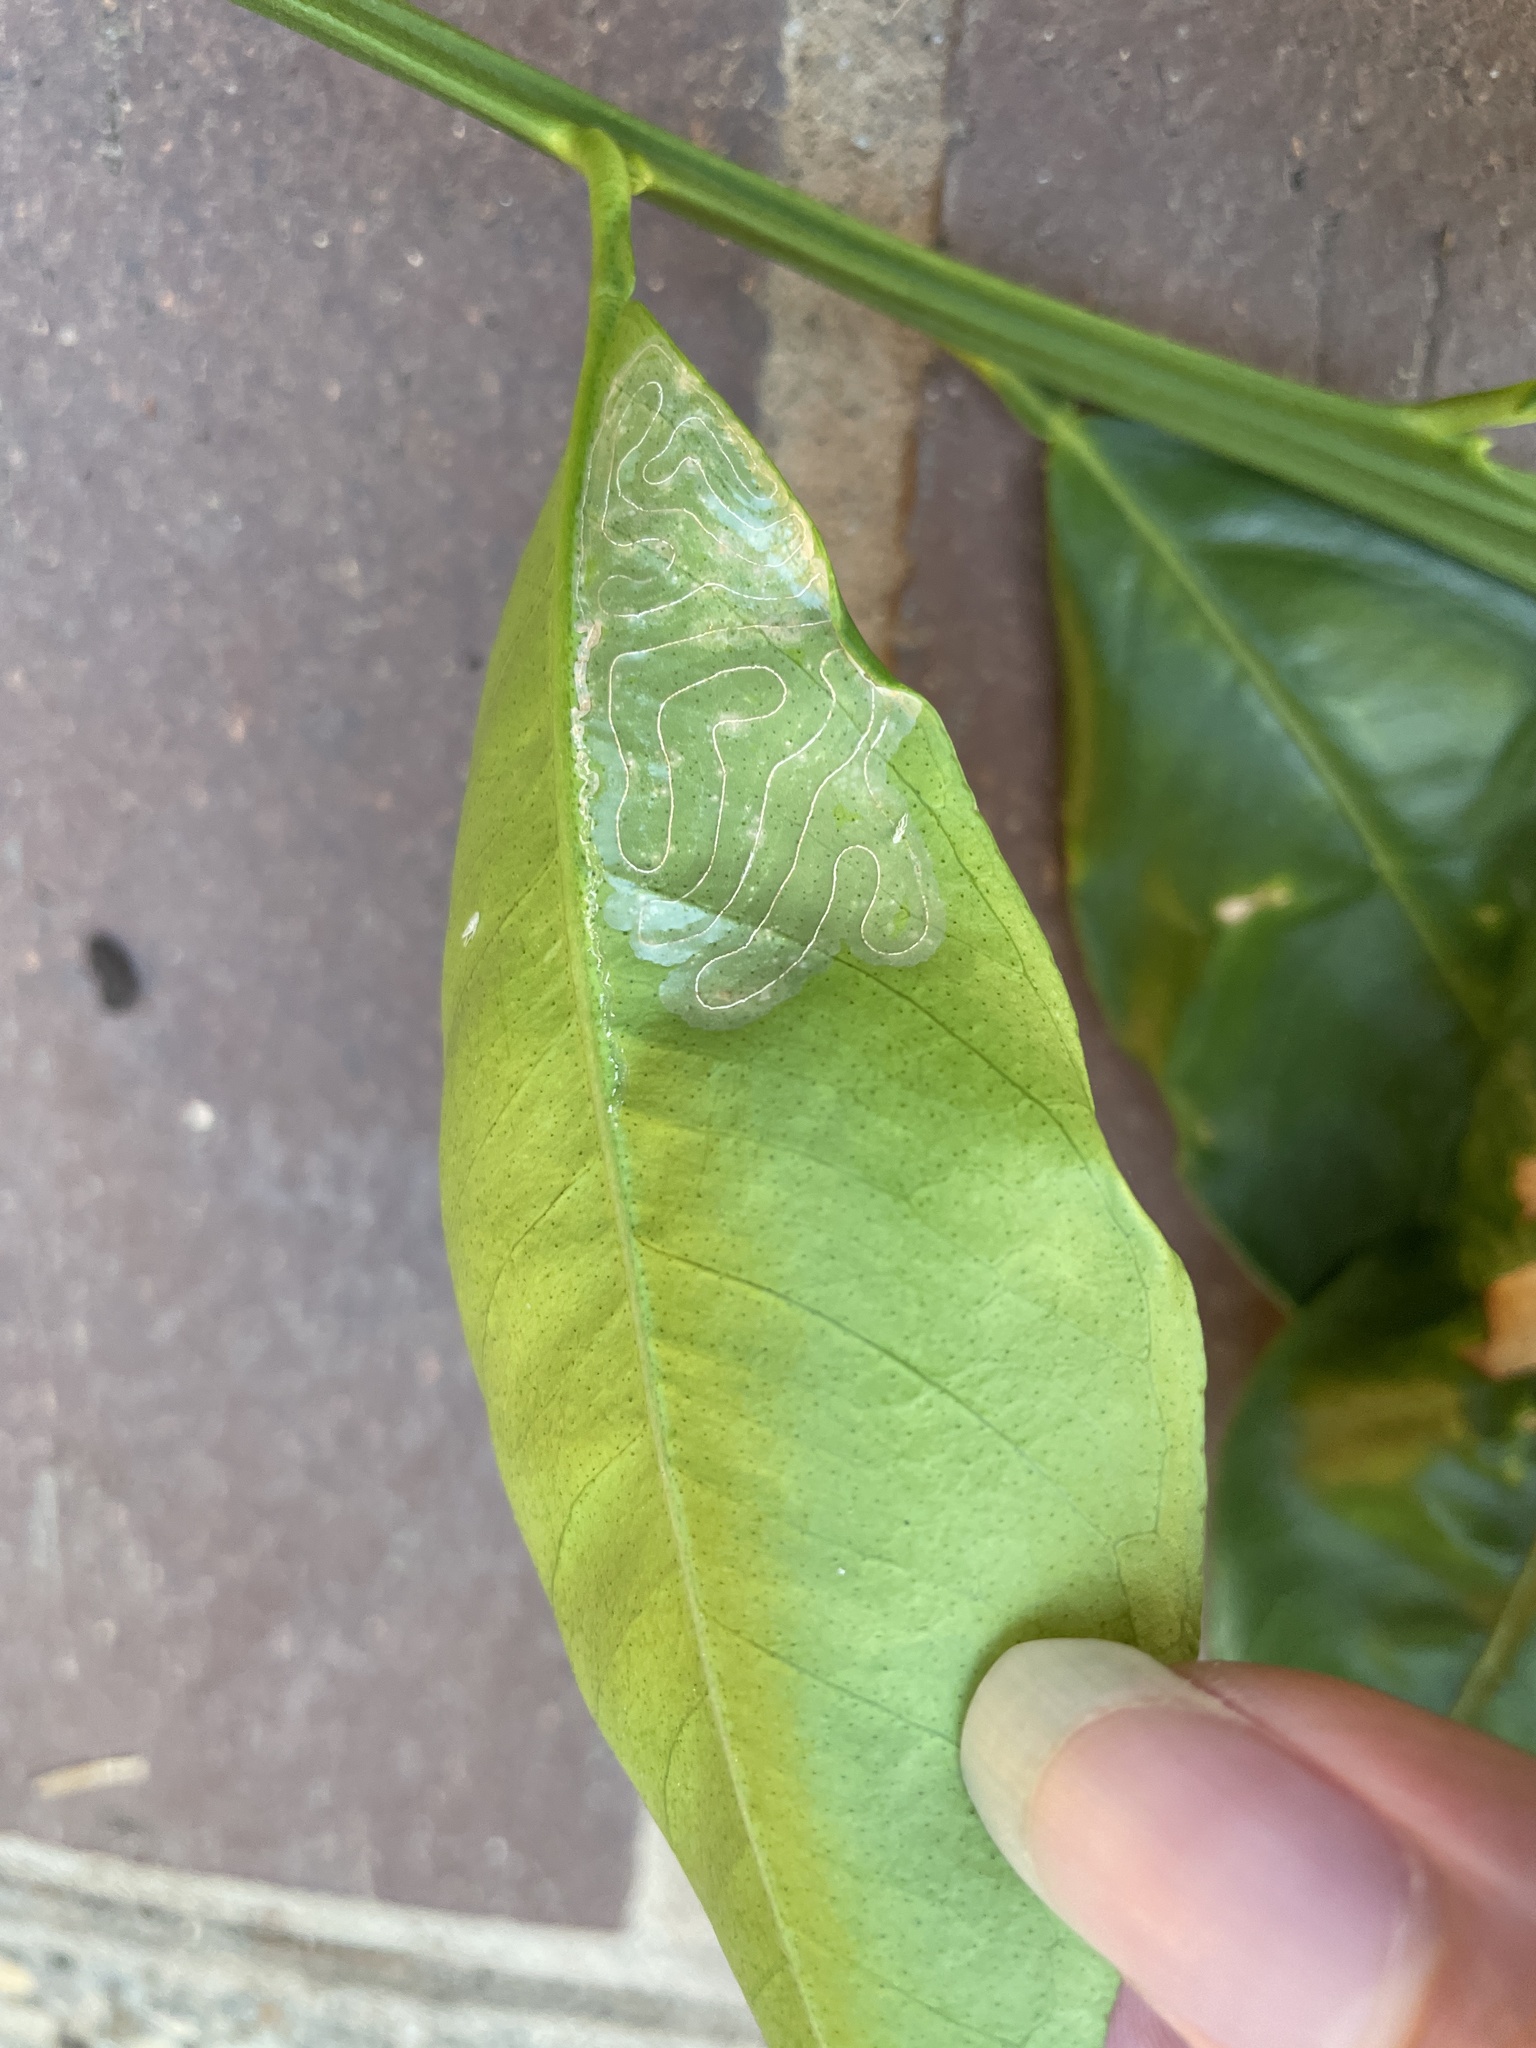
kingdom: Animalia
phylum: Arthropoda
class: Insecta
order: Lepidoptera
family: Gracillariidae
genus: Phyllocnistis
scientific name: Phyllocnistis citrella
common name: Citrus leafminer
